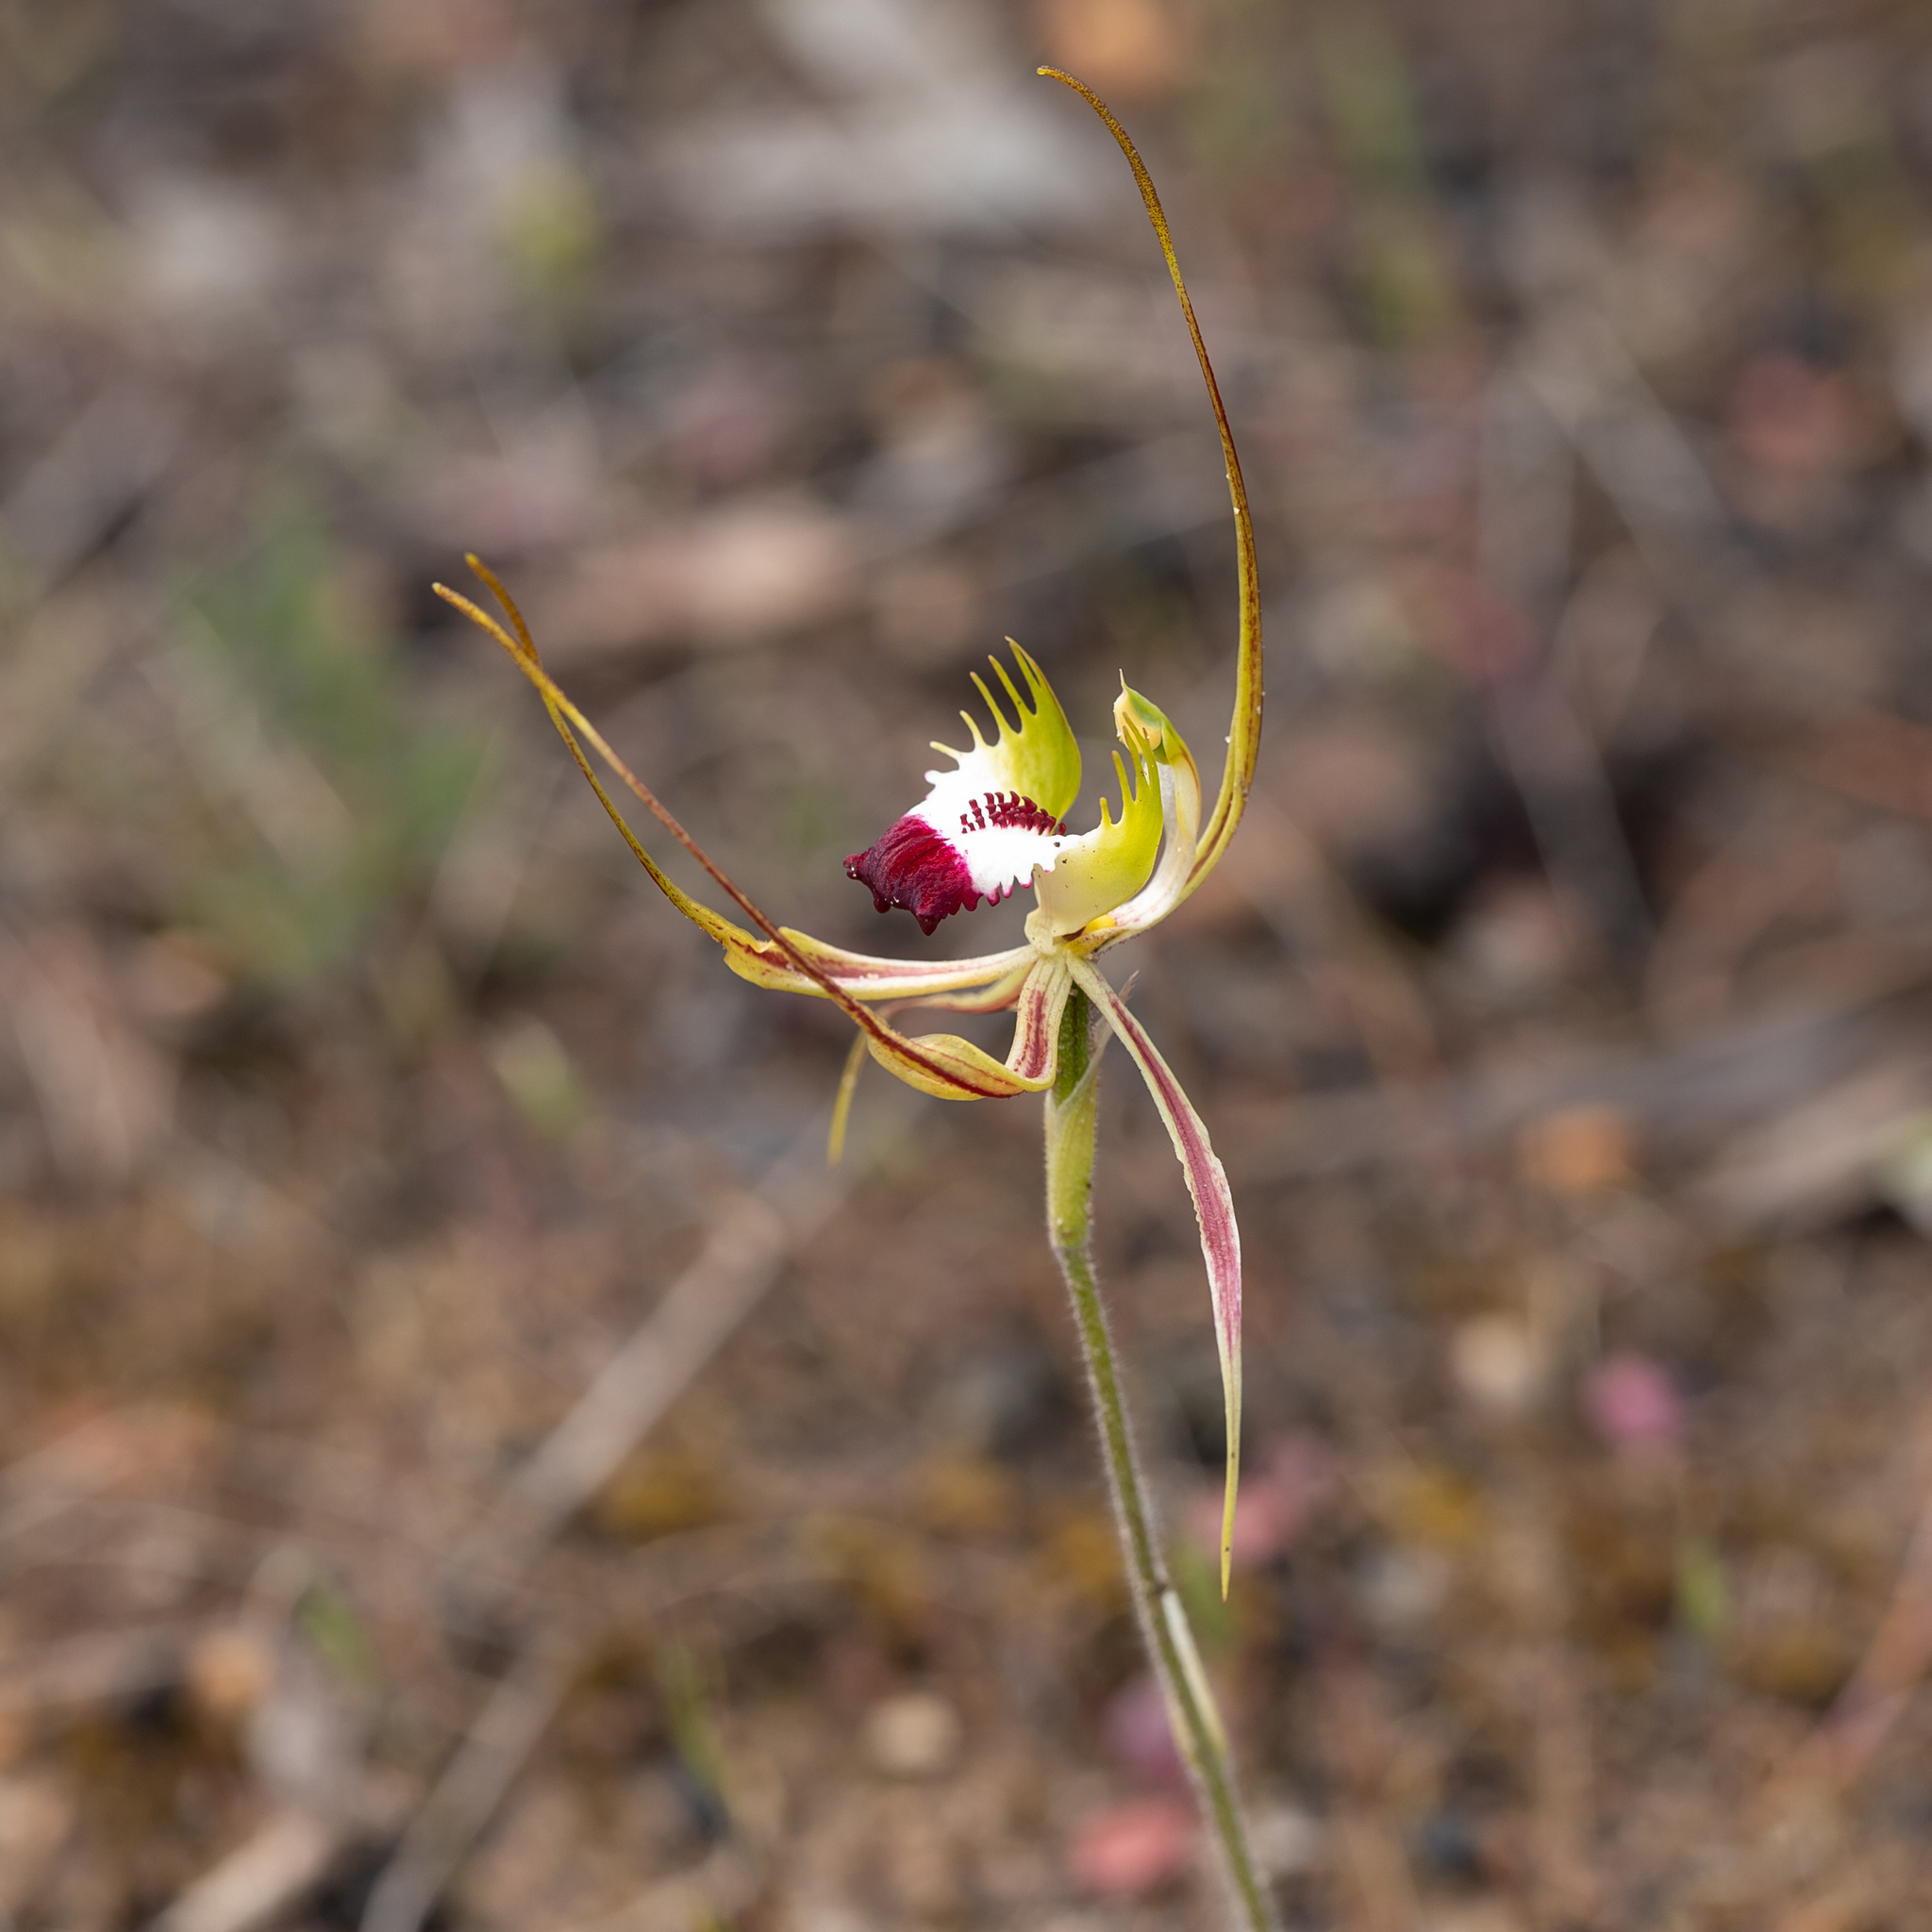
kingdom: Plantae
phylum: Tracheophyta
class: Liliopsida
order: Asparagales
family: Orchidaceae
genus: Caladenia
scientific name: Caladenia tentaculata
